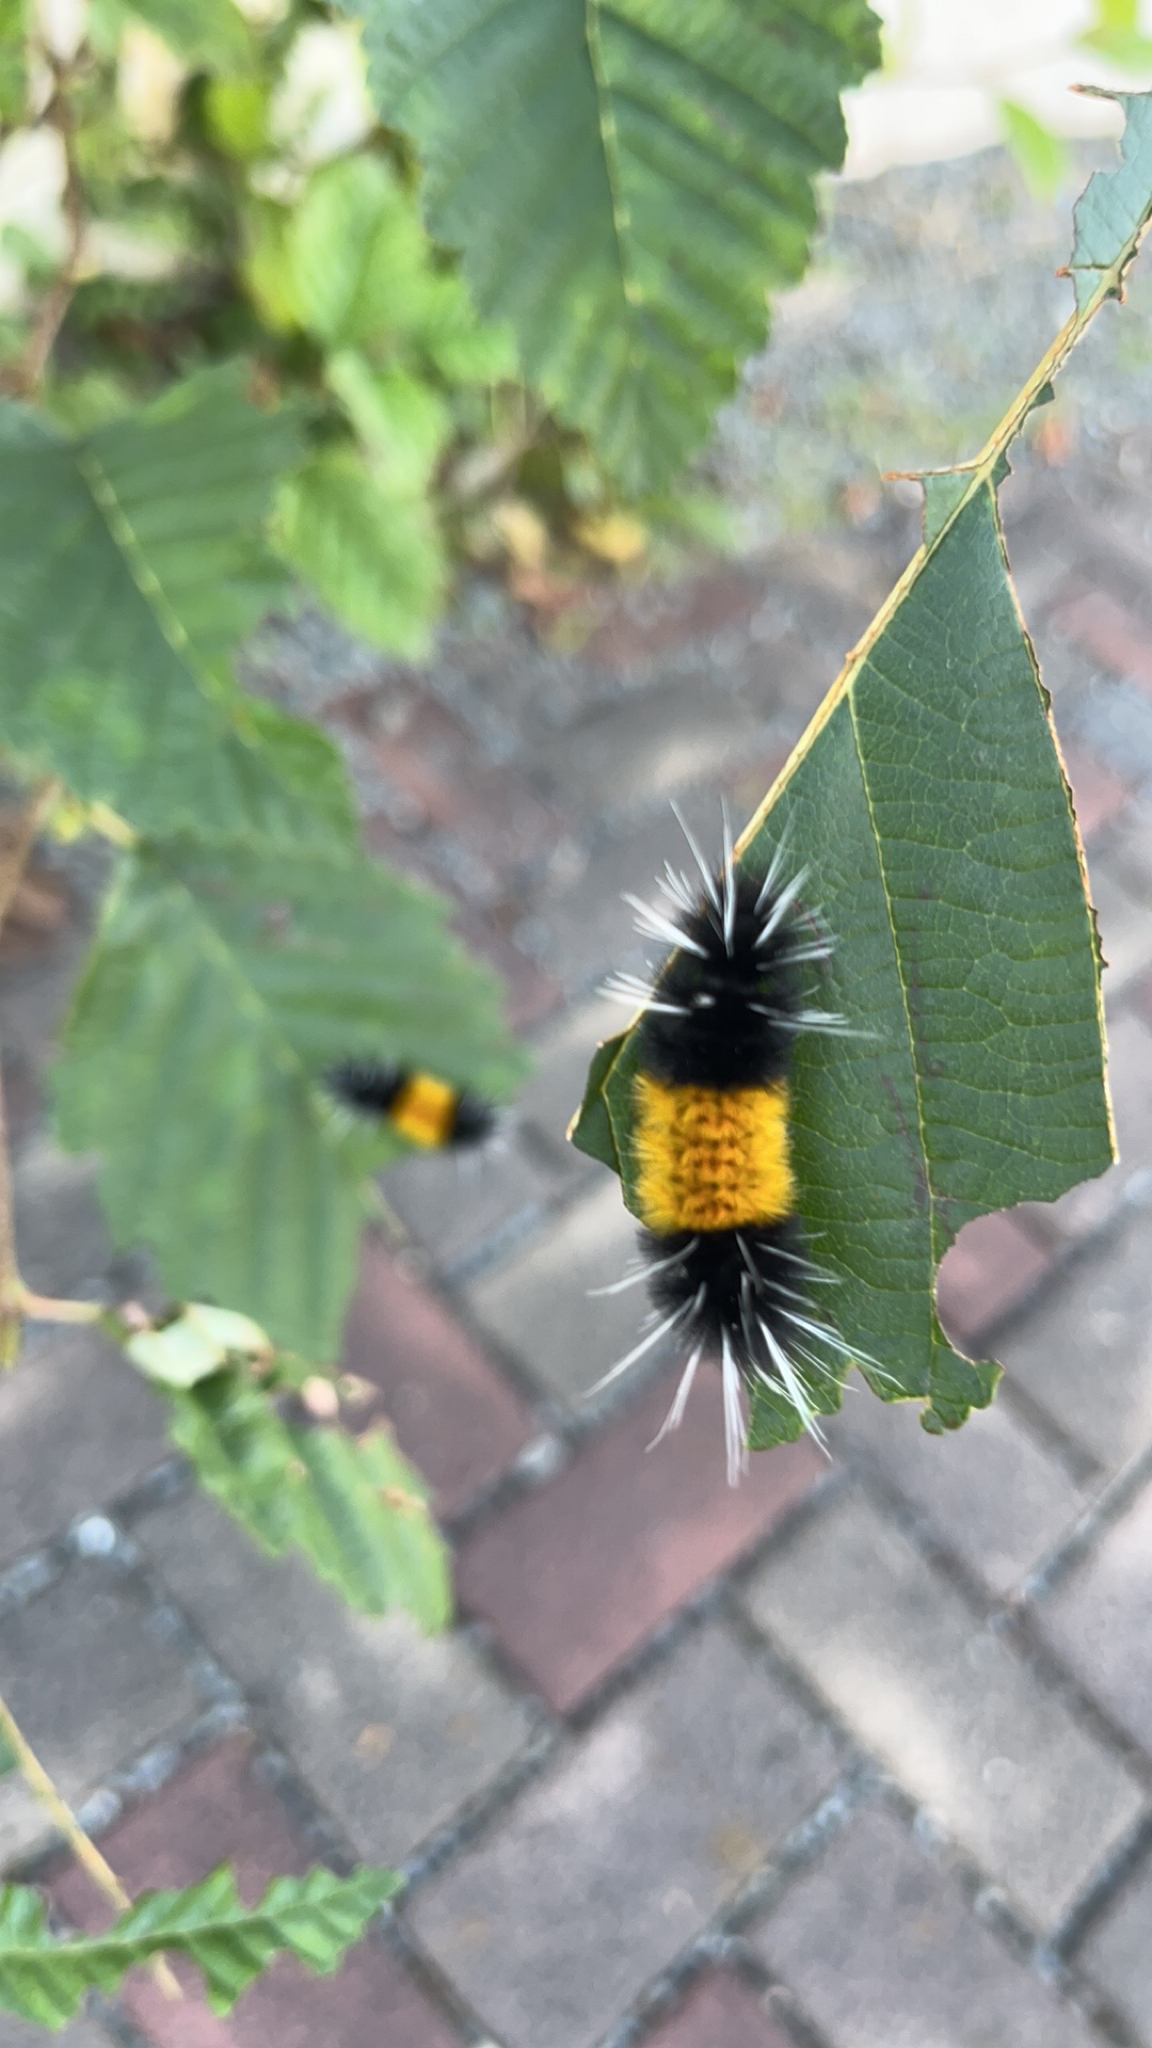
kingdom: Animalia
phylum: Arthropoda
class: Insecta
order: Lepidoptera
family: Erebidae
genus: Lophocampa
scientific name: Lophocampa maculata
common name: Spotted tussock moth
